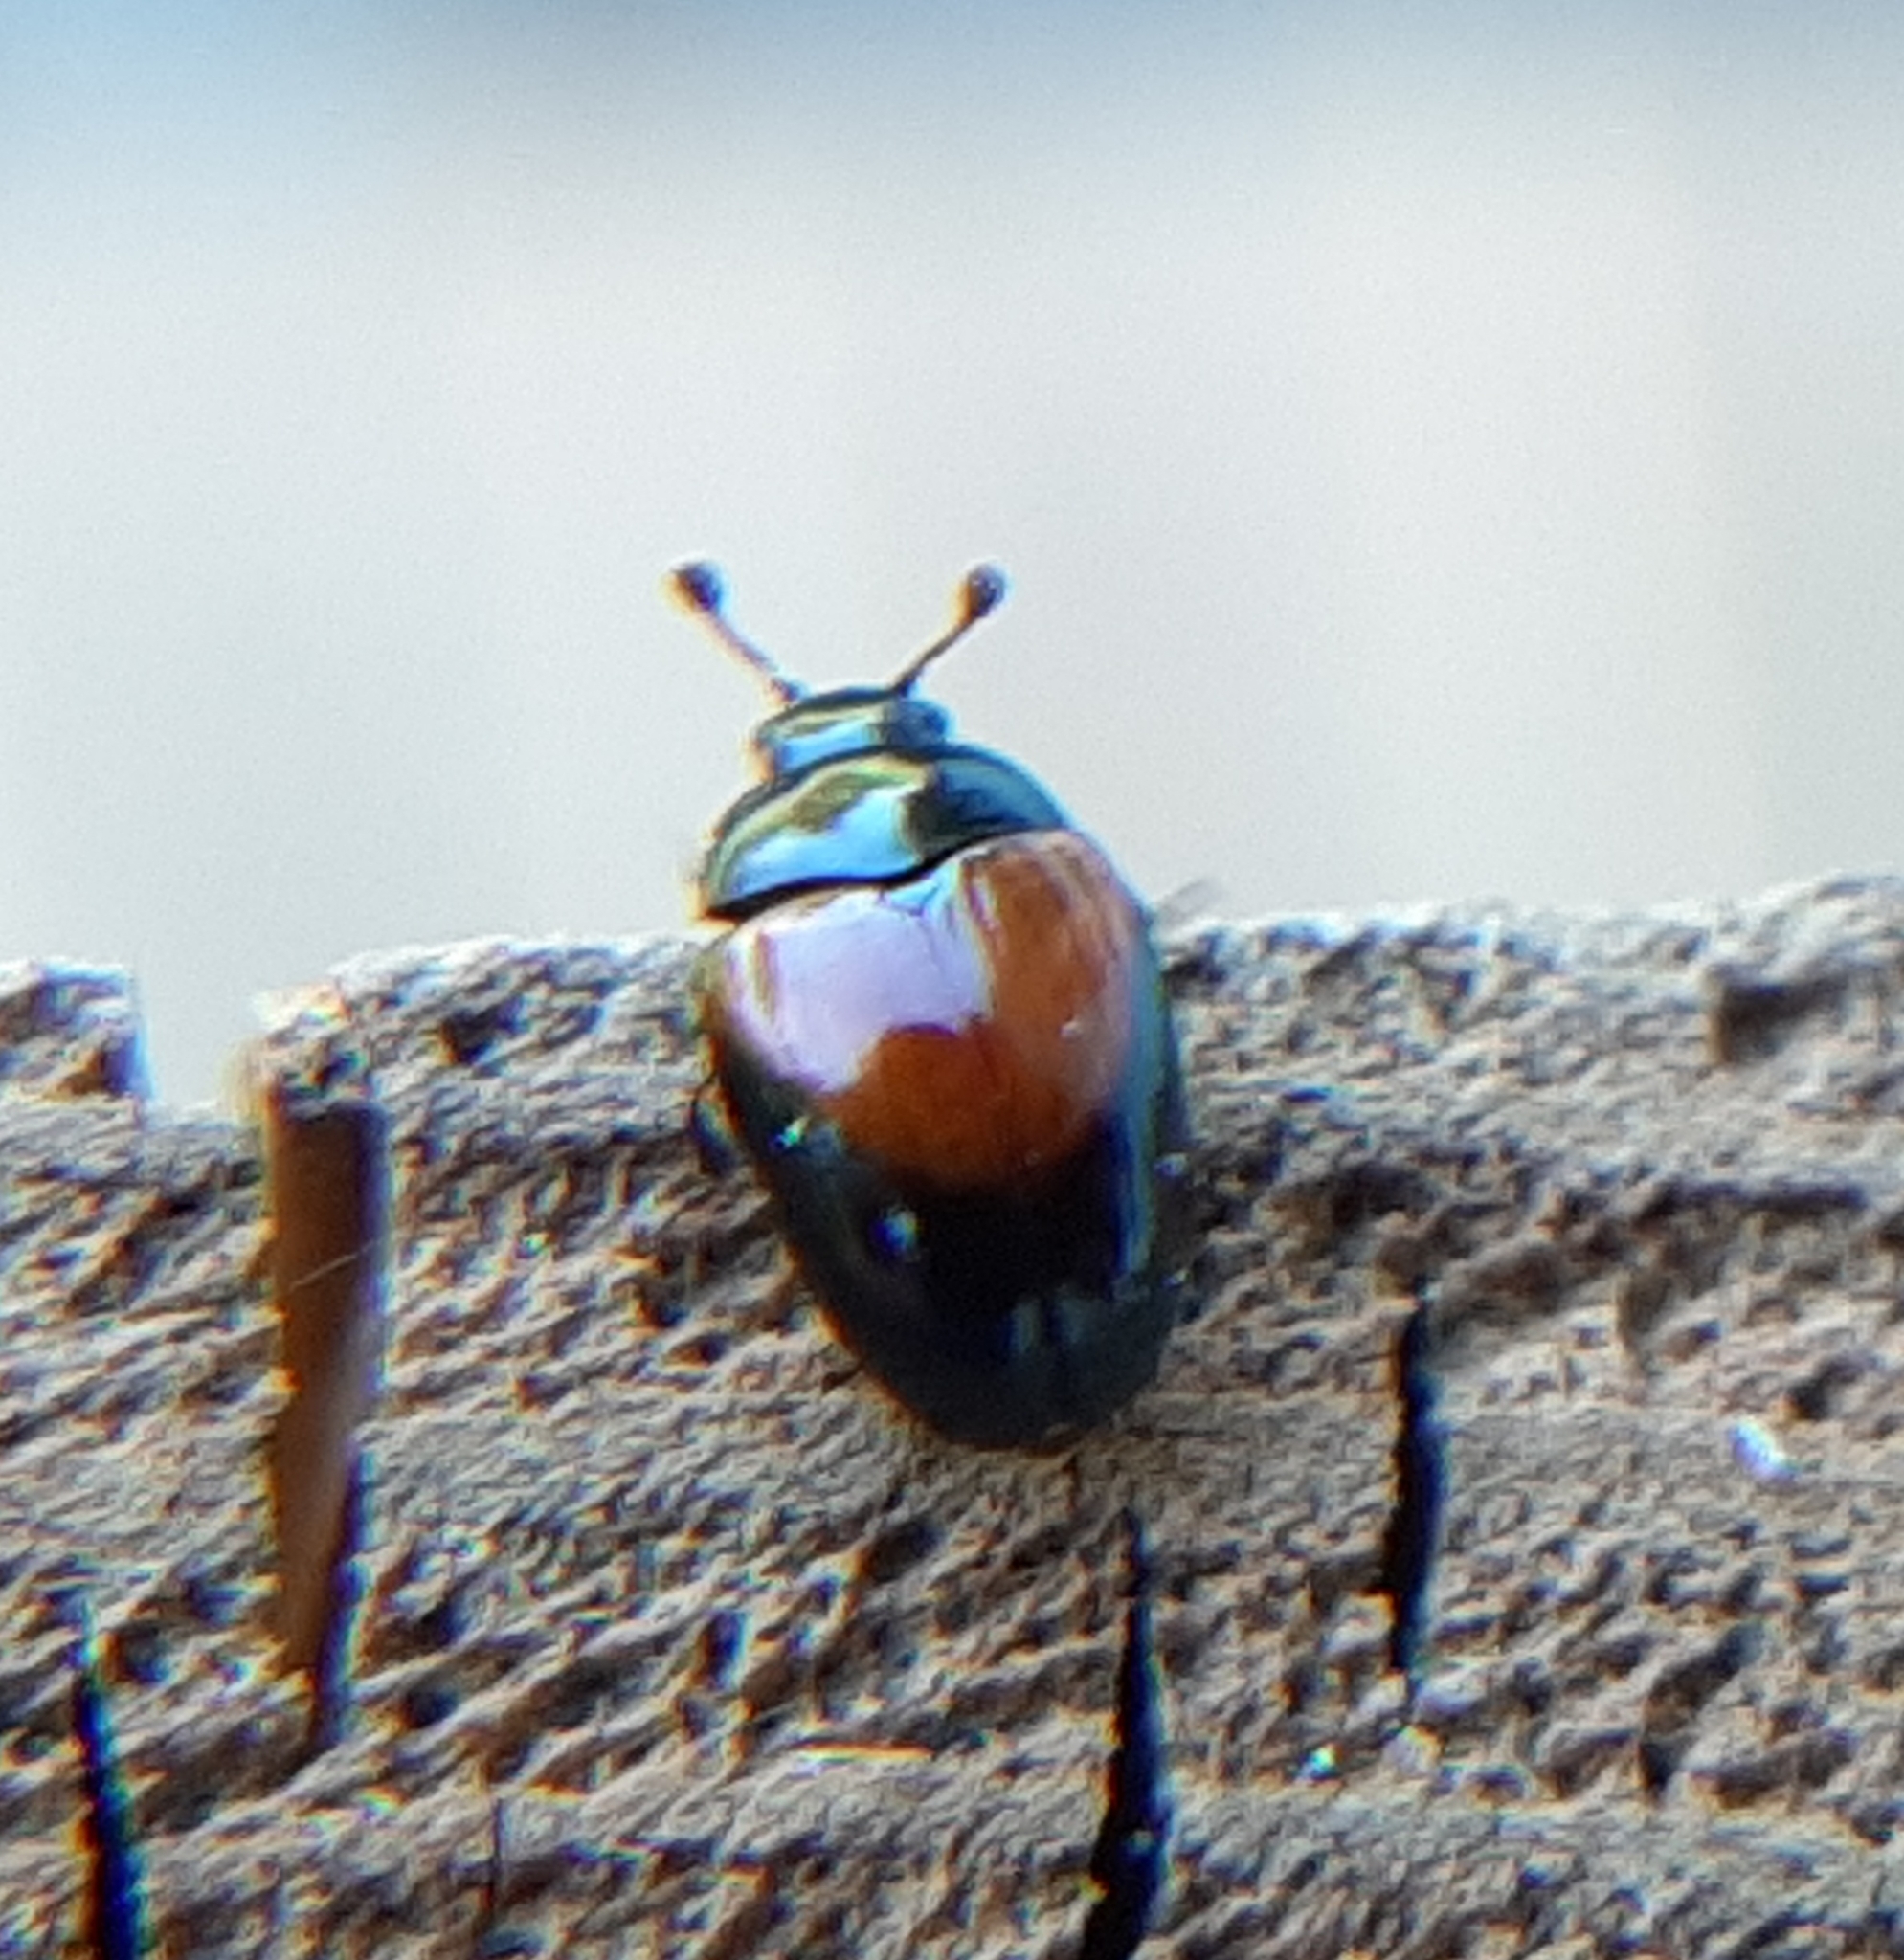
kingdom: Animalia
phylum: Arthropoda
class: Insecta
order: Coleoptera
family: Erotylidae
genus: Tritoma
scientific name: Tritoma pulchra
